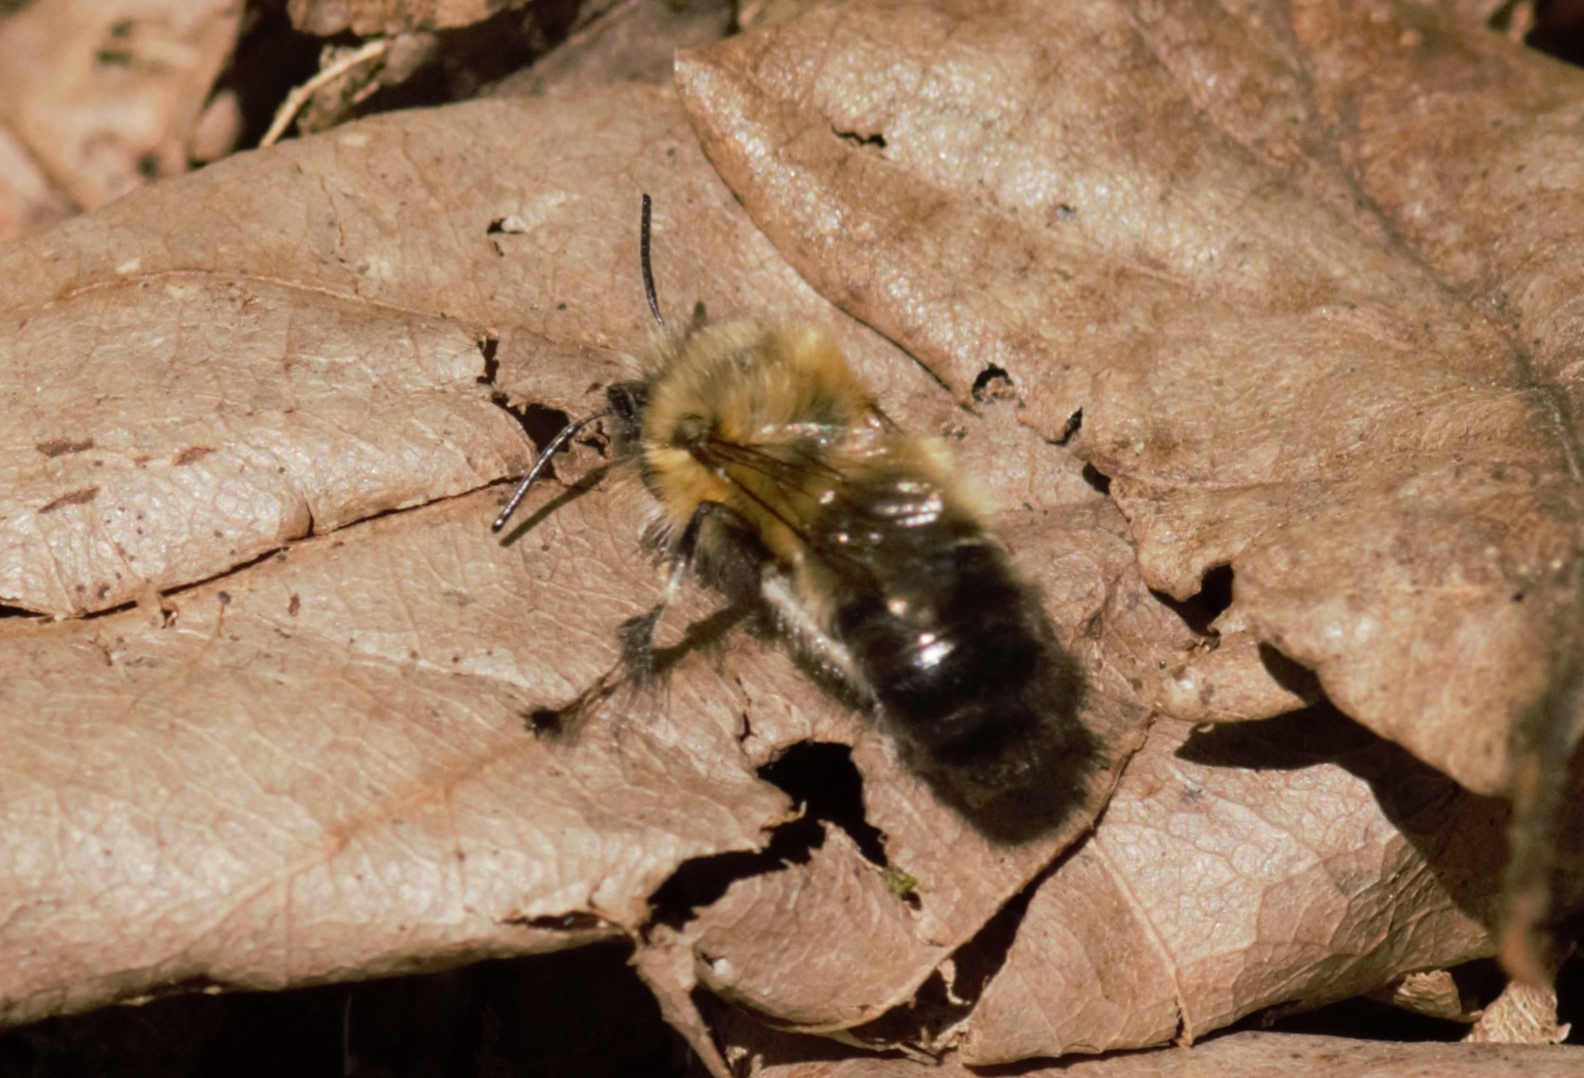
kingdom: Animalia
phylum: Arthropoda
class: Insecta
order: Hymenoptera
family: Apidae
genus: Anthophora
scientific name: Anthophora plumipes
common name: Hairy-footed flower bee
